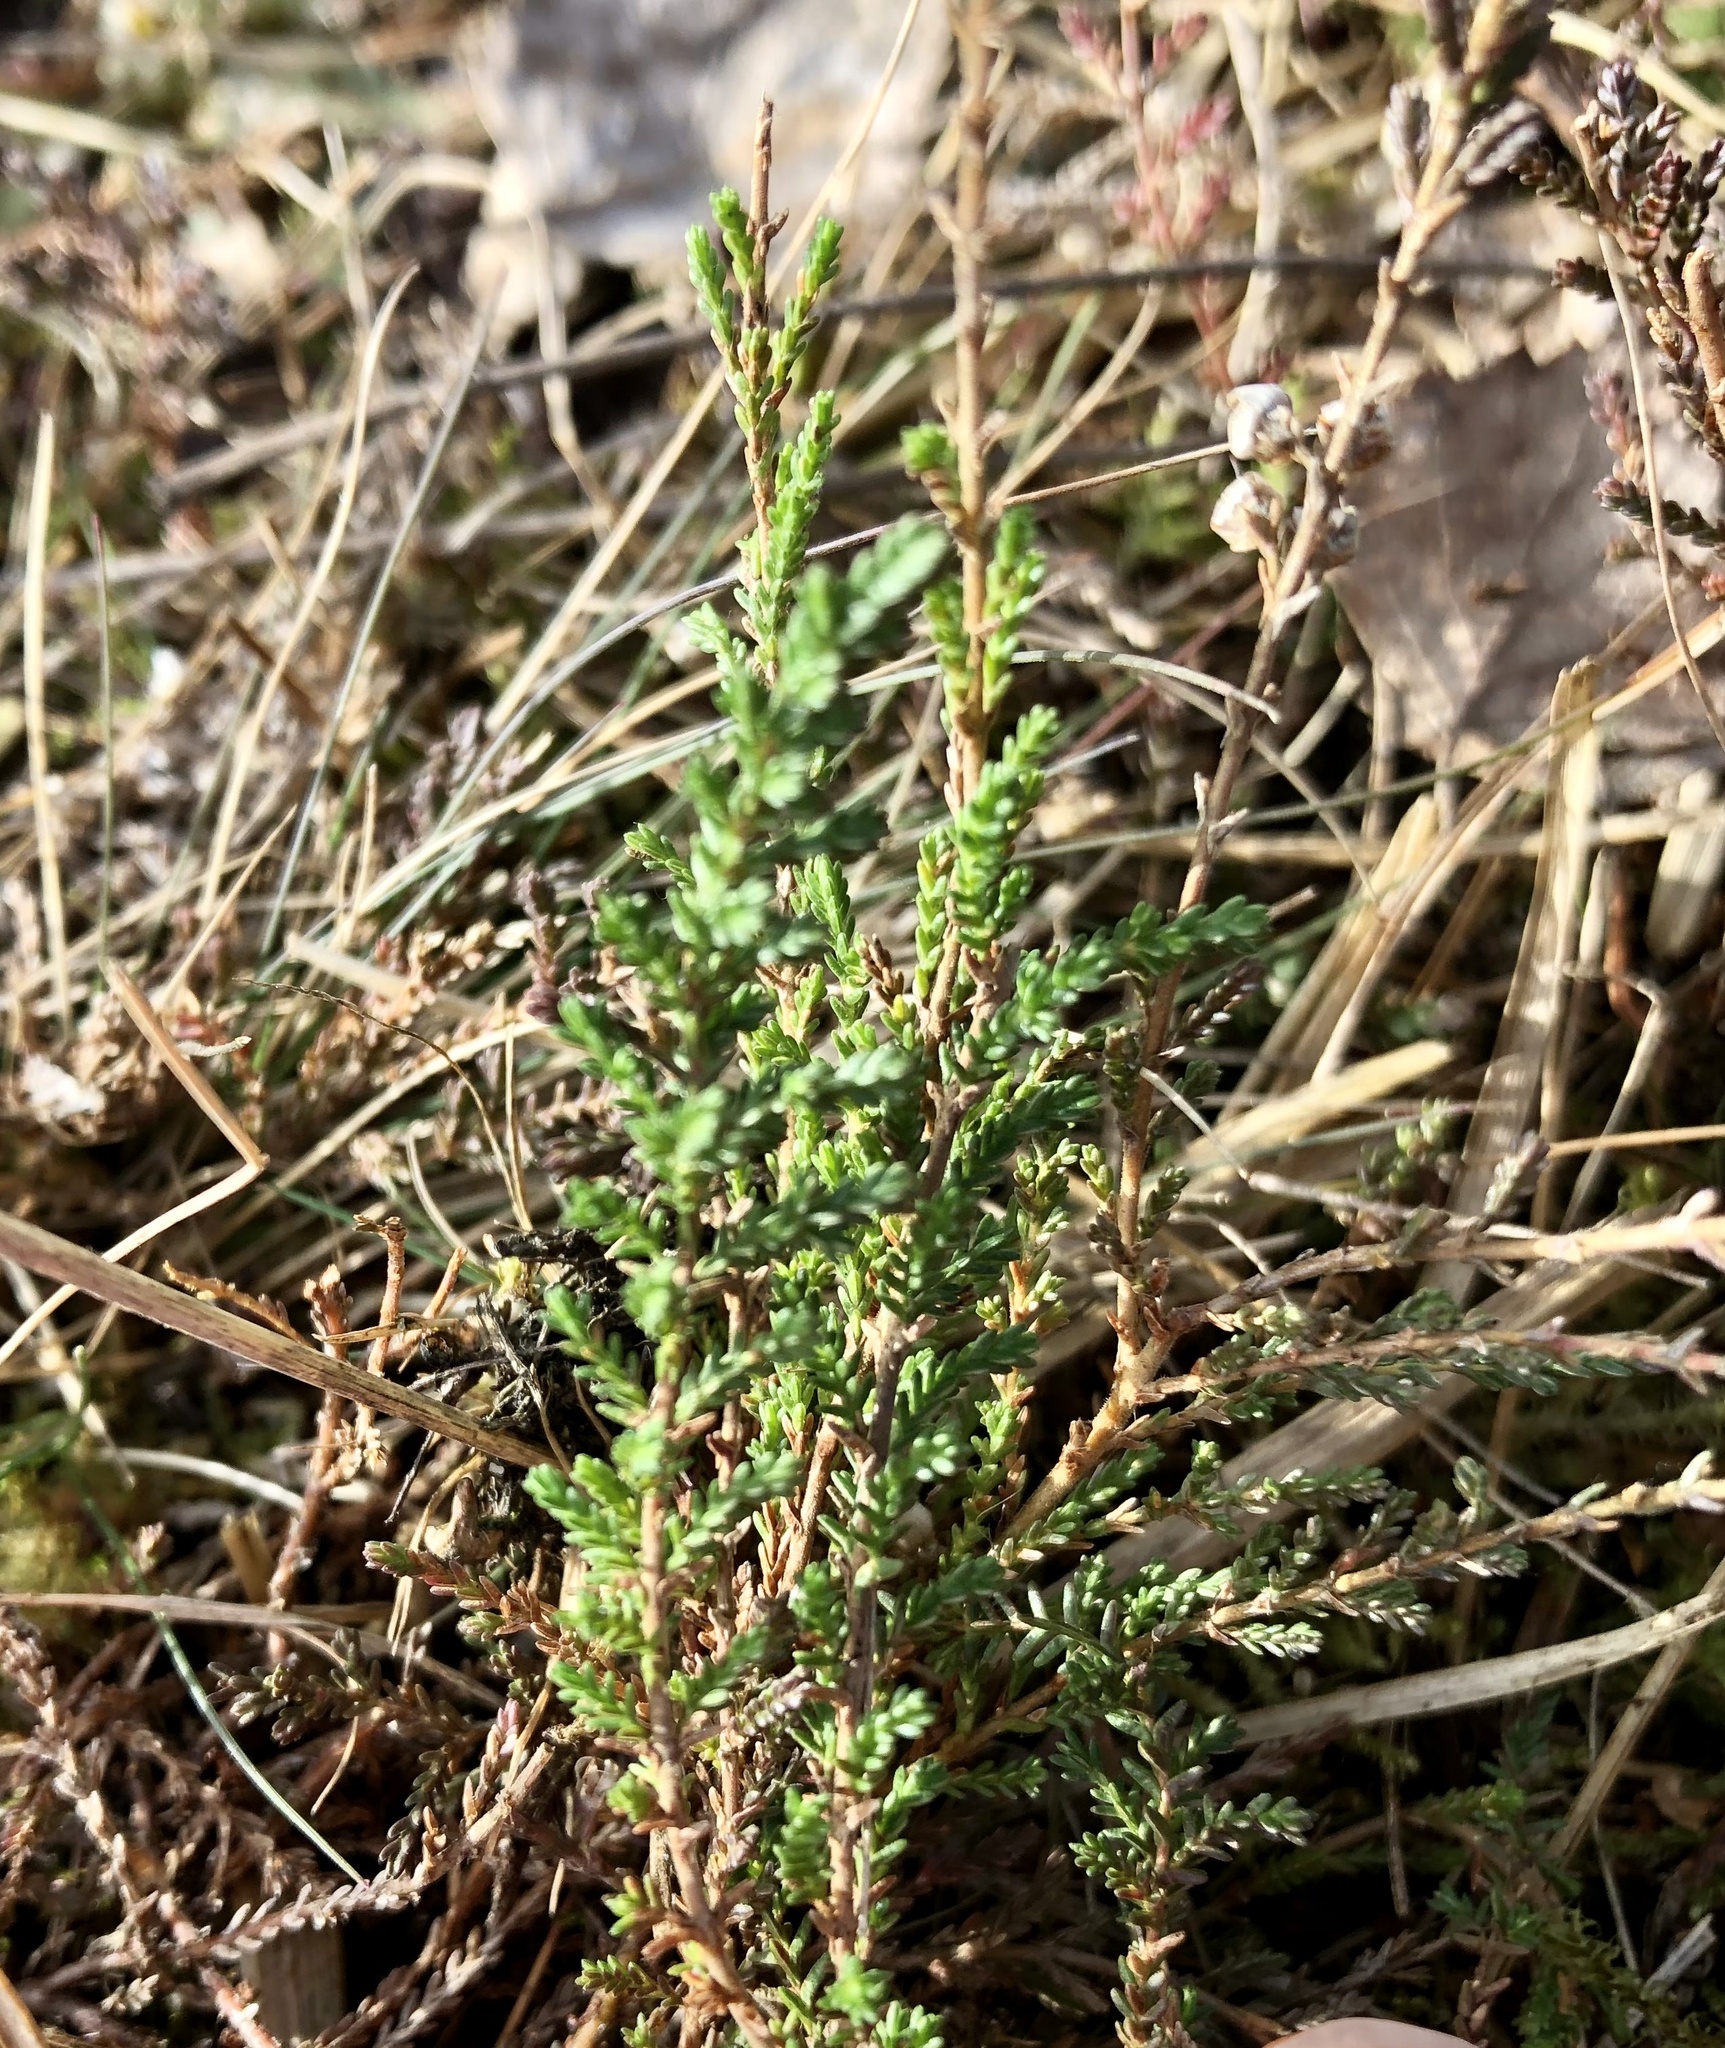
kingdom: Plantae
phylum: Tracheophyta
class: Magnoliopsida
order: Ericales
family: Ericaceae
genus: Calluna
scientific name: Calluna vulgaris
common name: Heather
